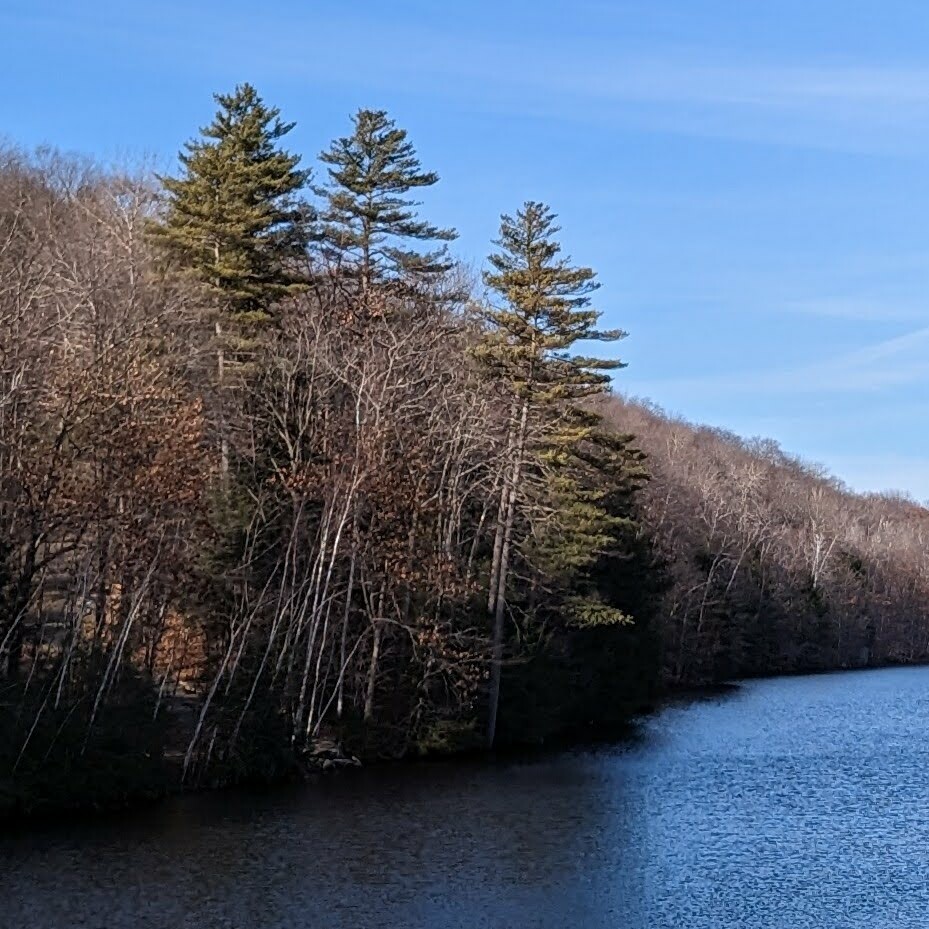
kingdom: Plantae
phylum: Tracheophyta
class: Pinopsida
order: Pinales
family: Pinaceae
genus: Pinus
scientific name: Pinus strobus
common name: Weymouth pine
